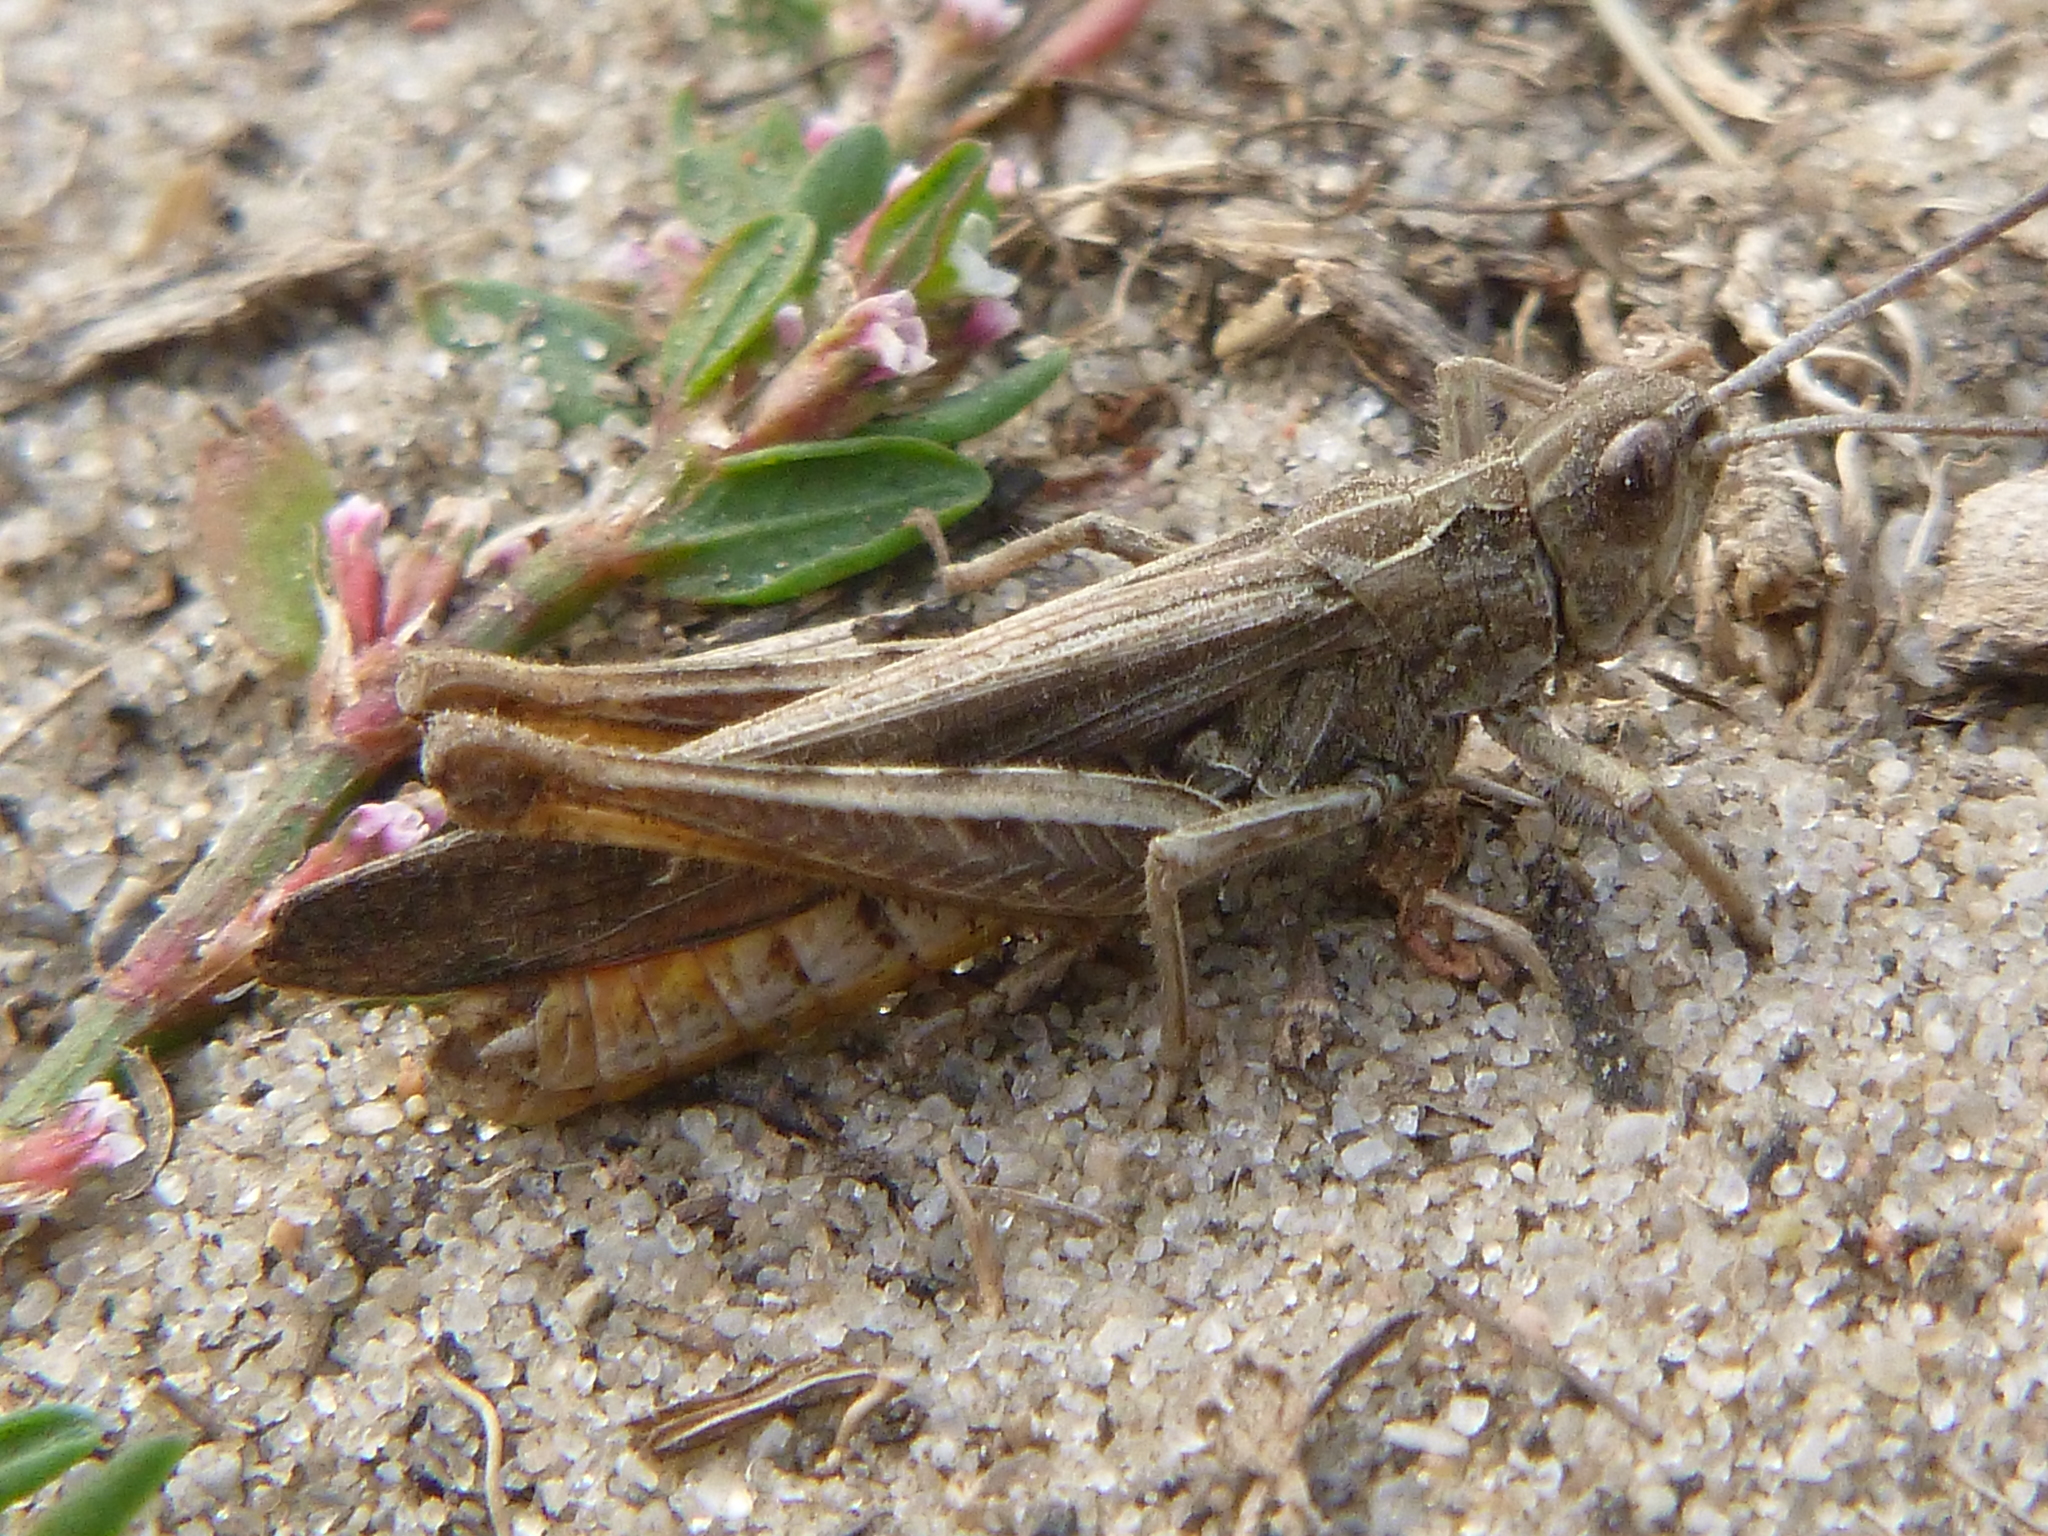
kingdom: Animalia
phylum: Arthropoda
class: Insecta
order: Orthoptera
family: Acrididae
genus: Chorthippus
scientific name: Chorthippus brunneus
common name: Field grasshopper
